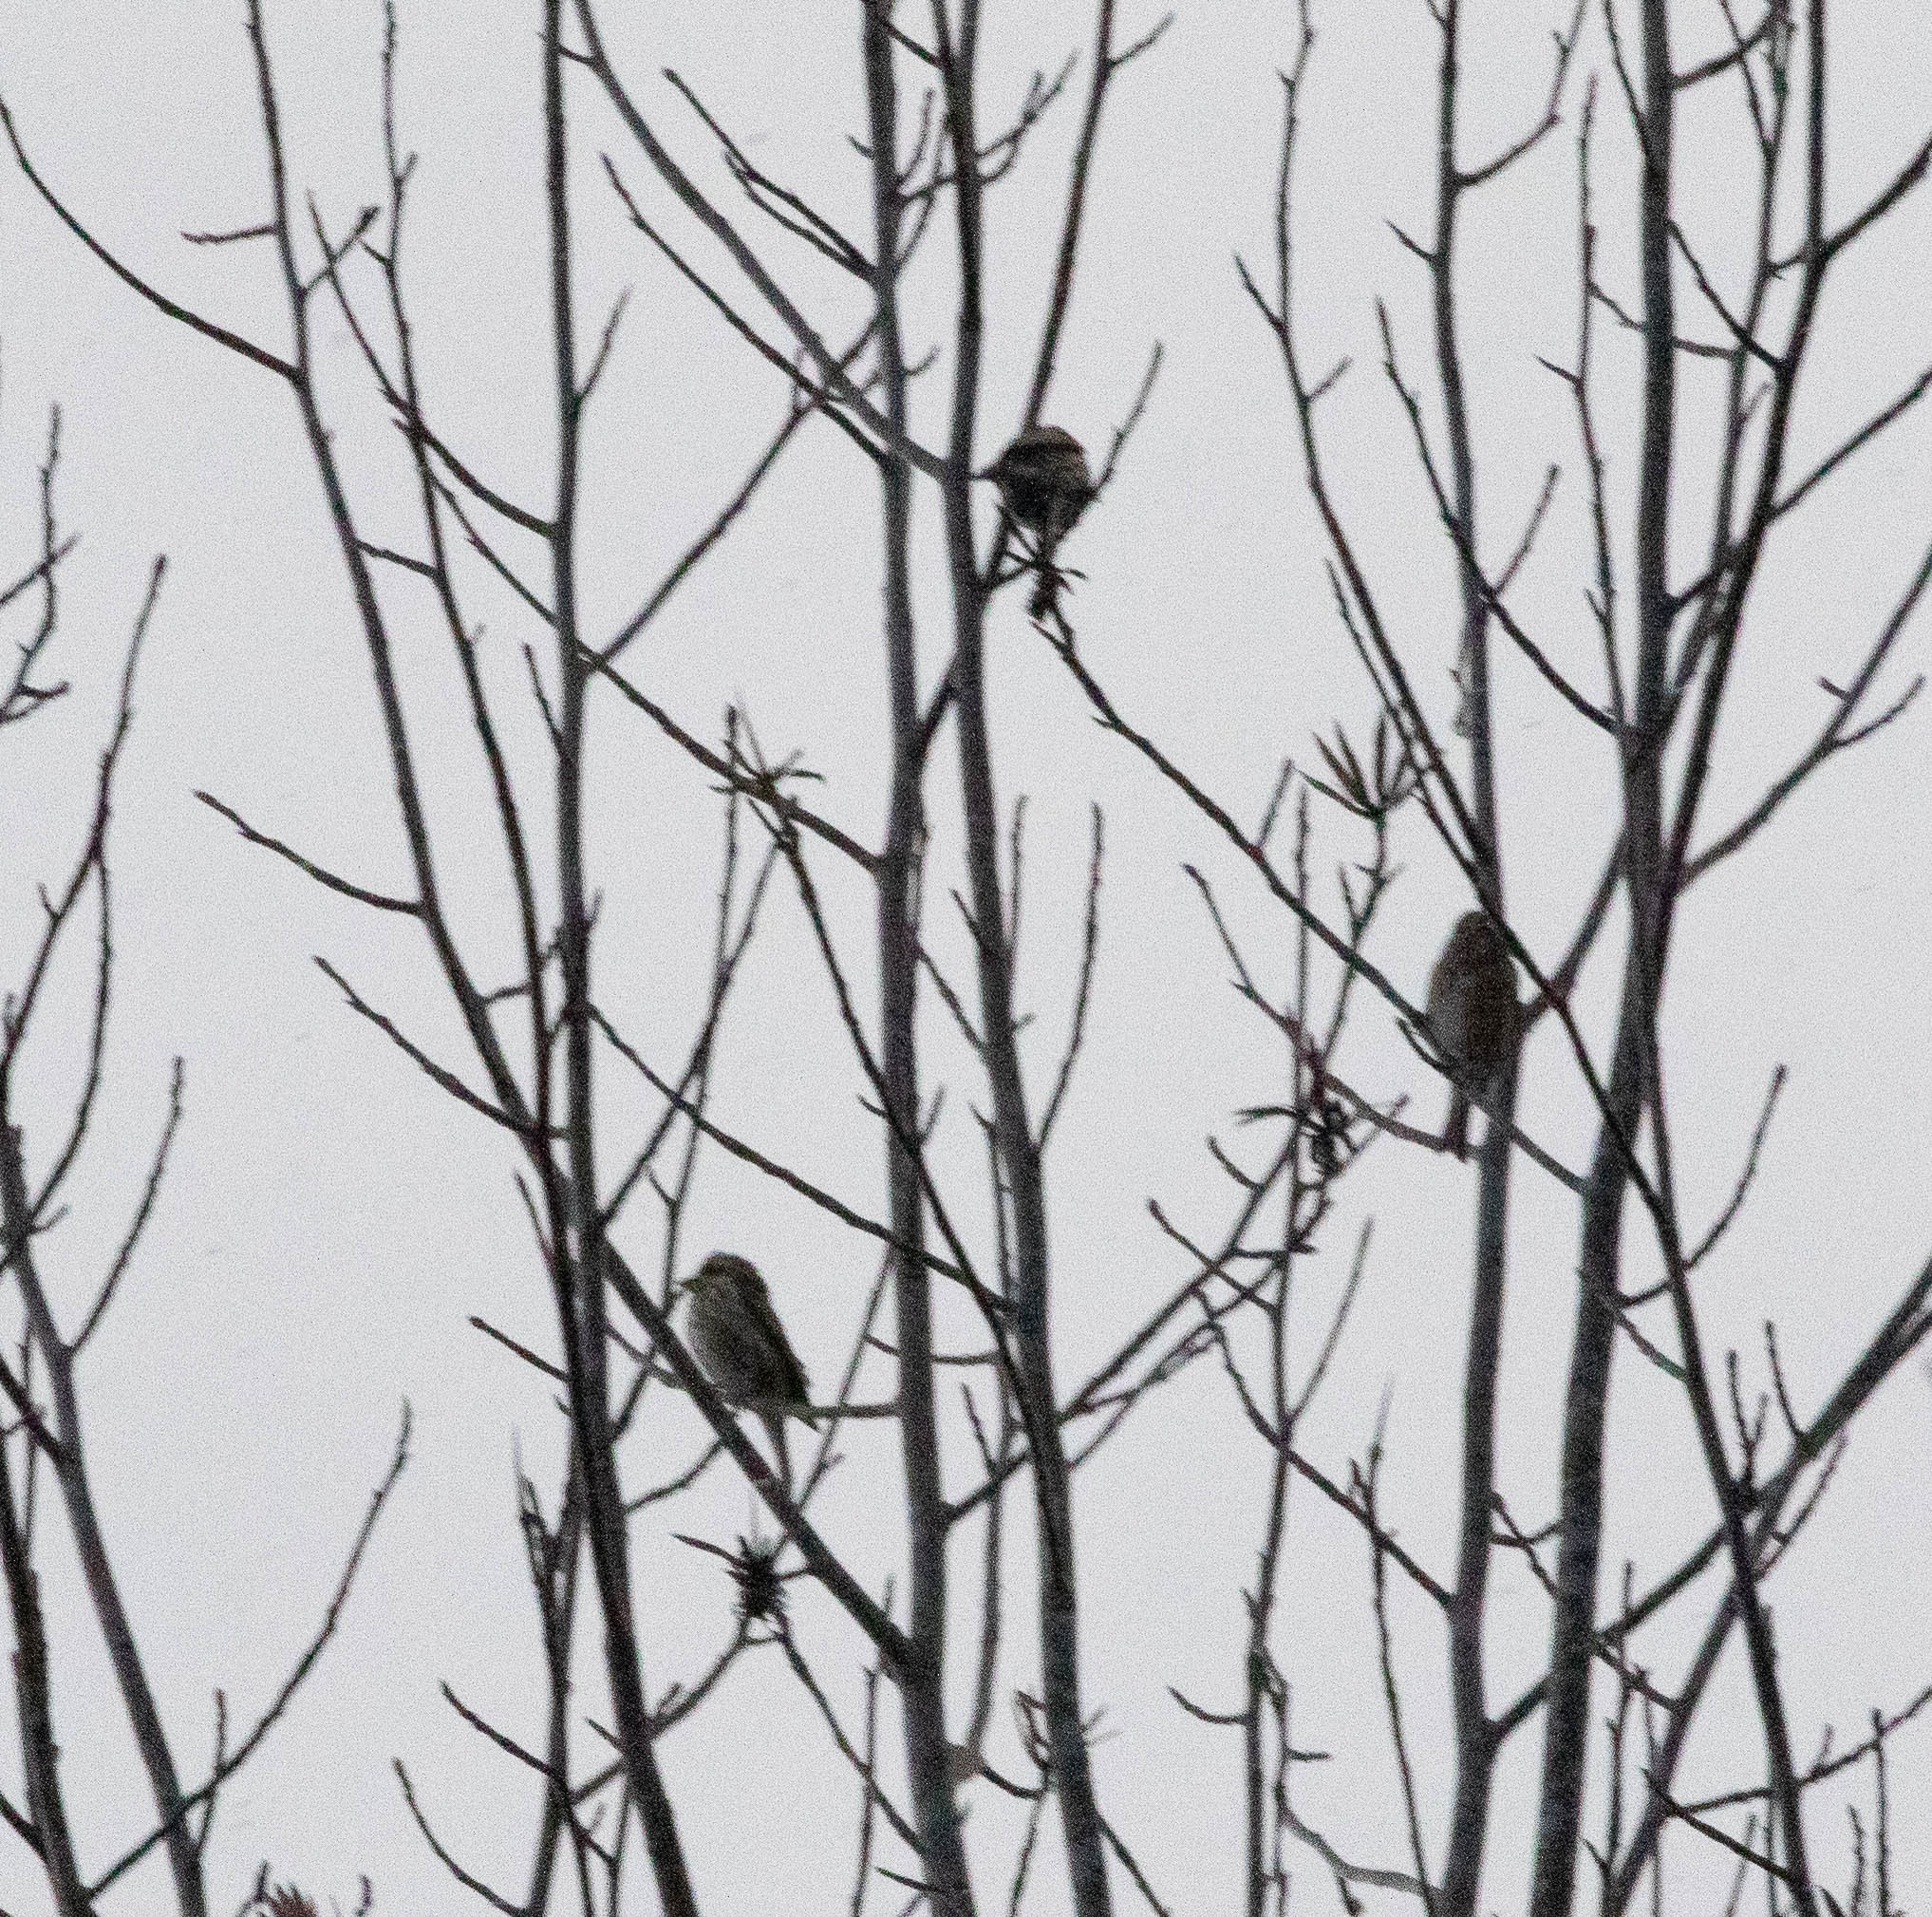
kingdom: Animalia
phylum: Chordata
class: Aves
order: Passeriformes
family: Fringillidae
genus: Haemorhous
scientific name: Haemorhous purpureus
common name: Purple finch
